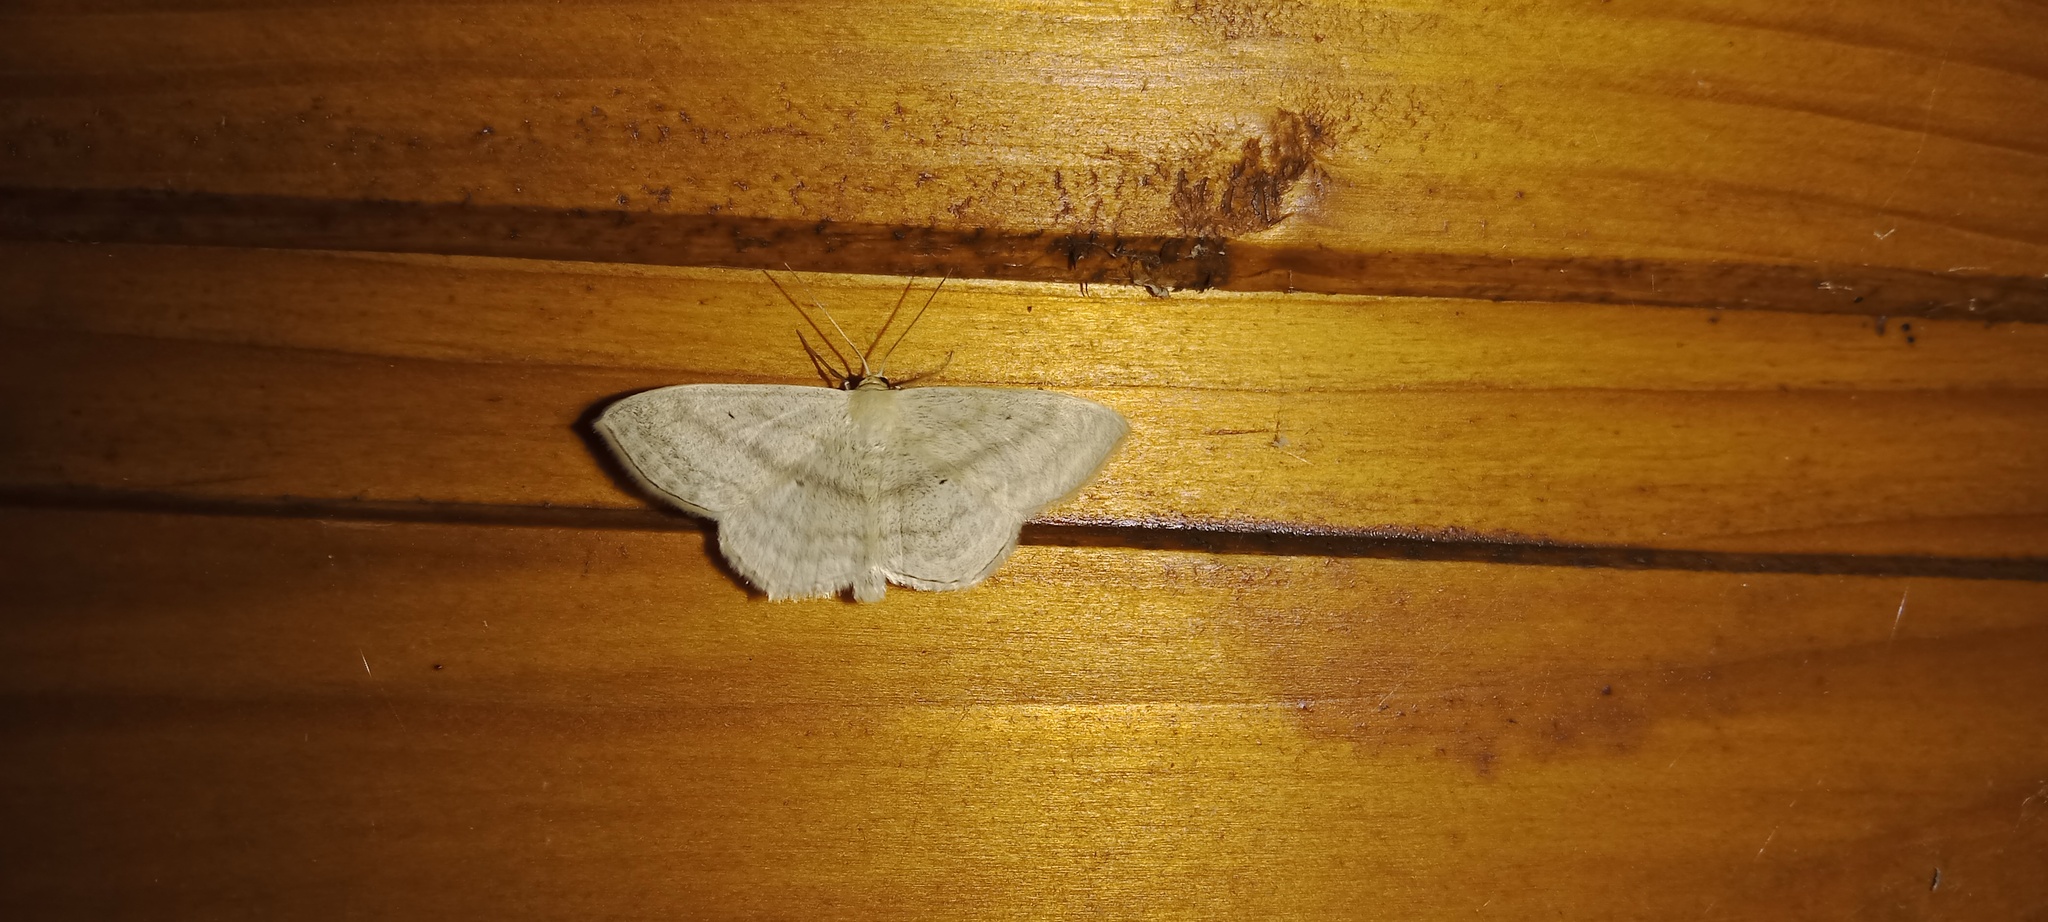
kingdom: Animalia
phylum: Arthropoda
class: Insecta
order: Lepidoptera
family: Geometridae
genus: Scopula
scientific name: Scopula nigropunctata
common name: Sub-angled wave
